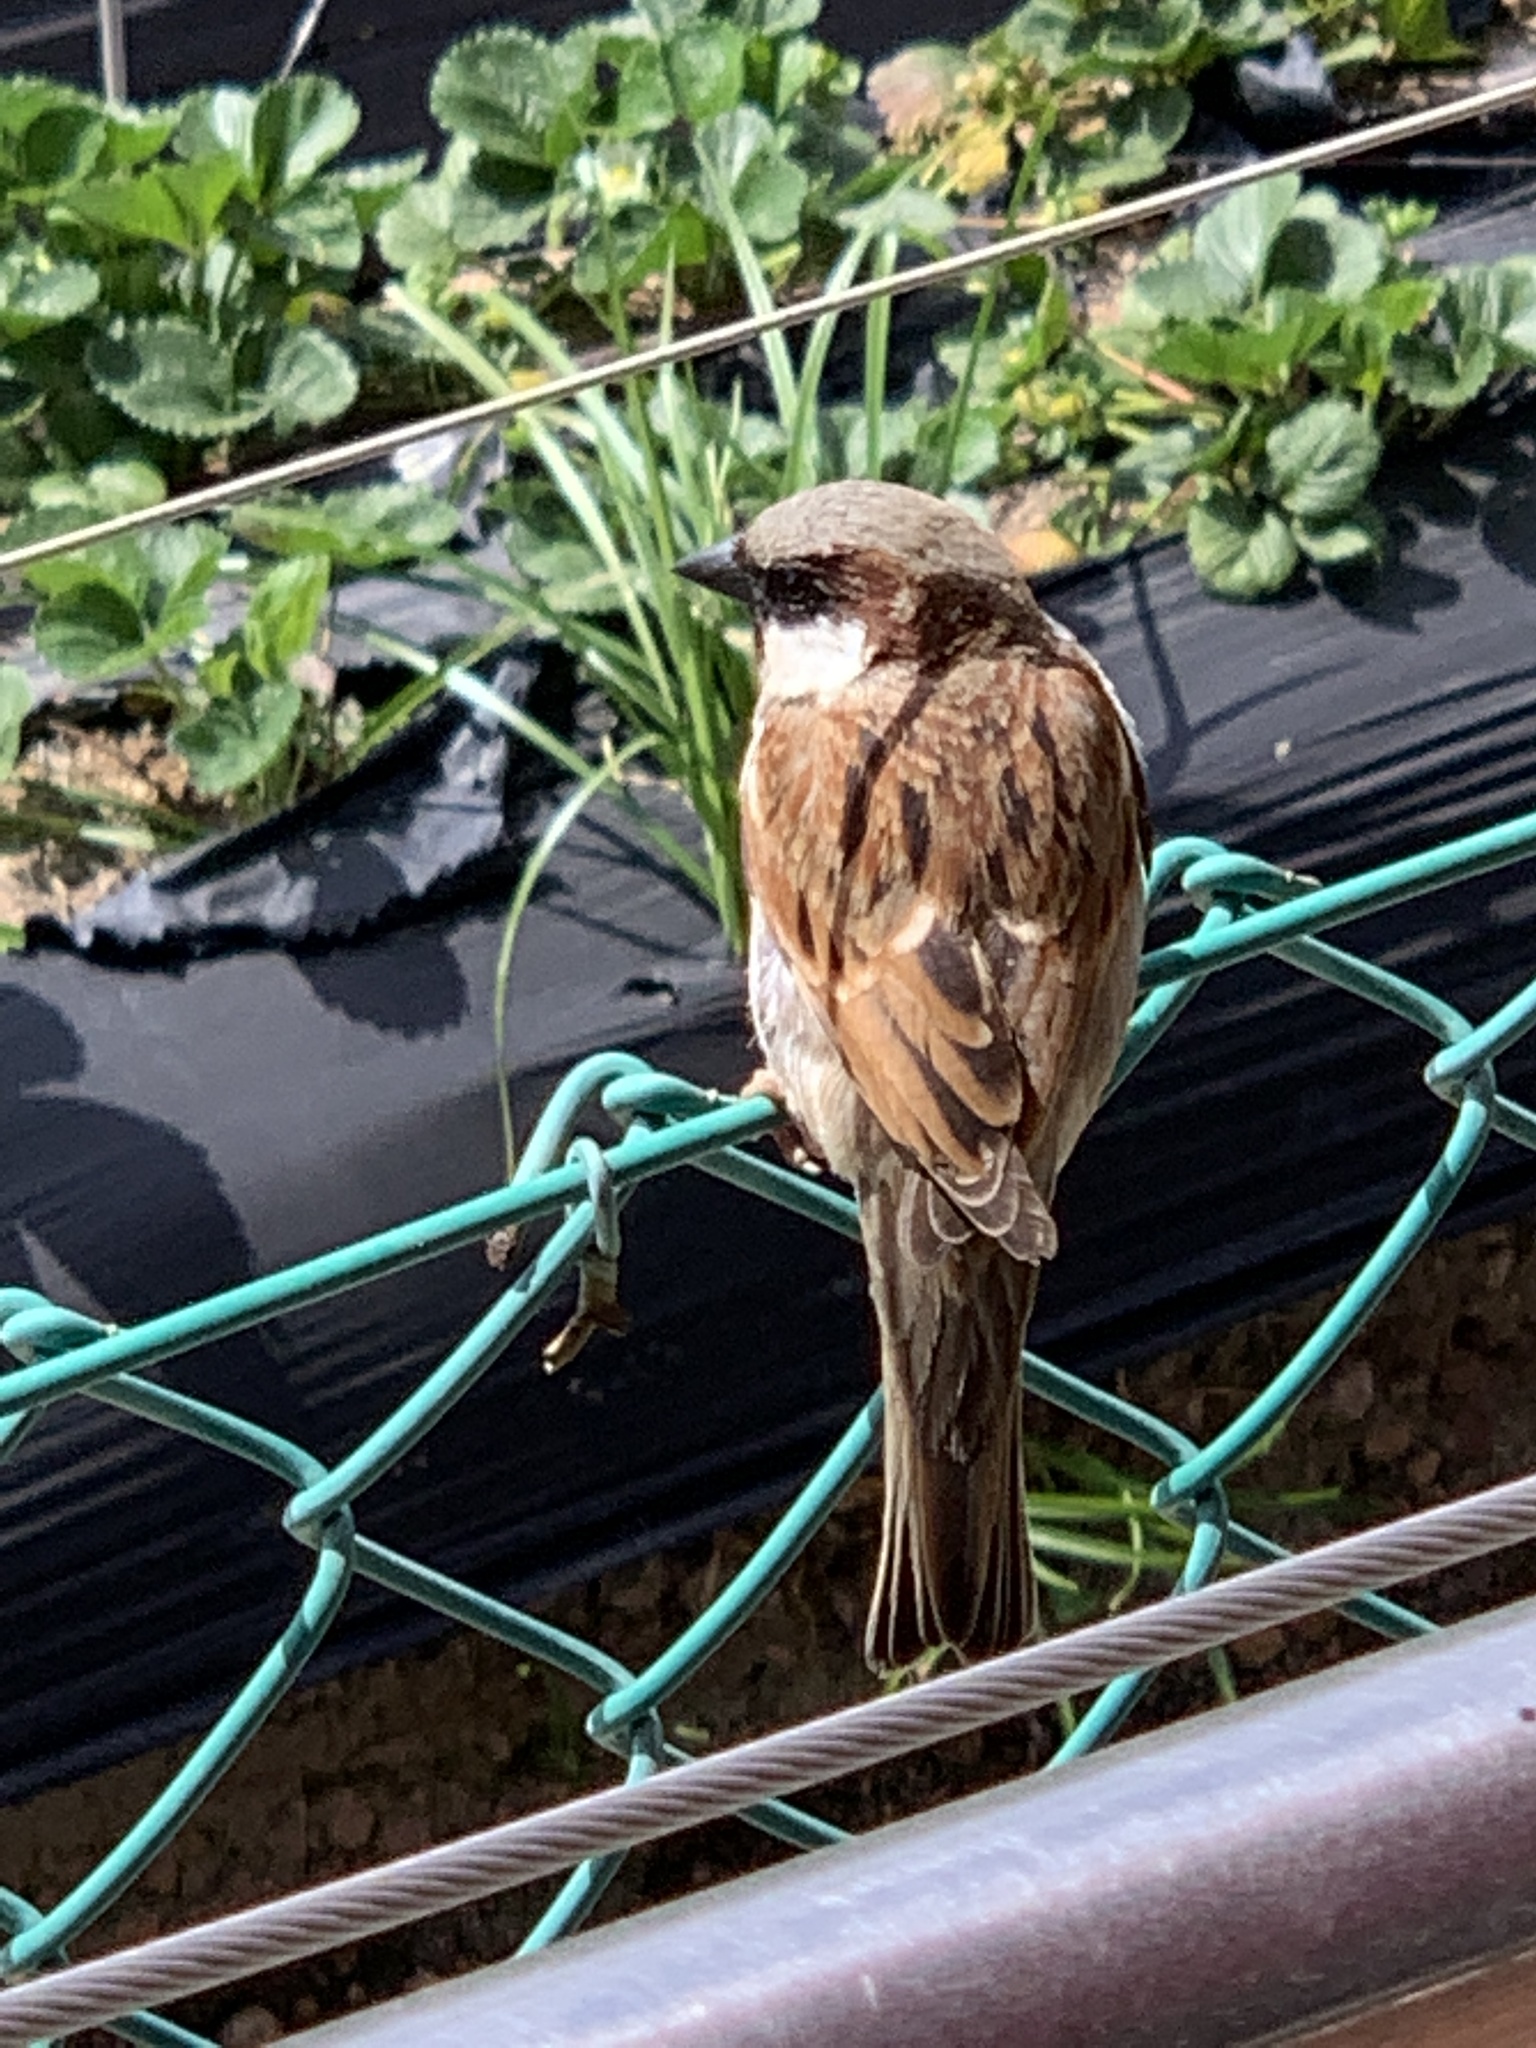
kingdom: Animalia
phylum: Chordata
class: Aves
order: Passeriformes
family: Passeridae
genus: Passer
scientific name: Passer domesticus
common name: House sparrow
